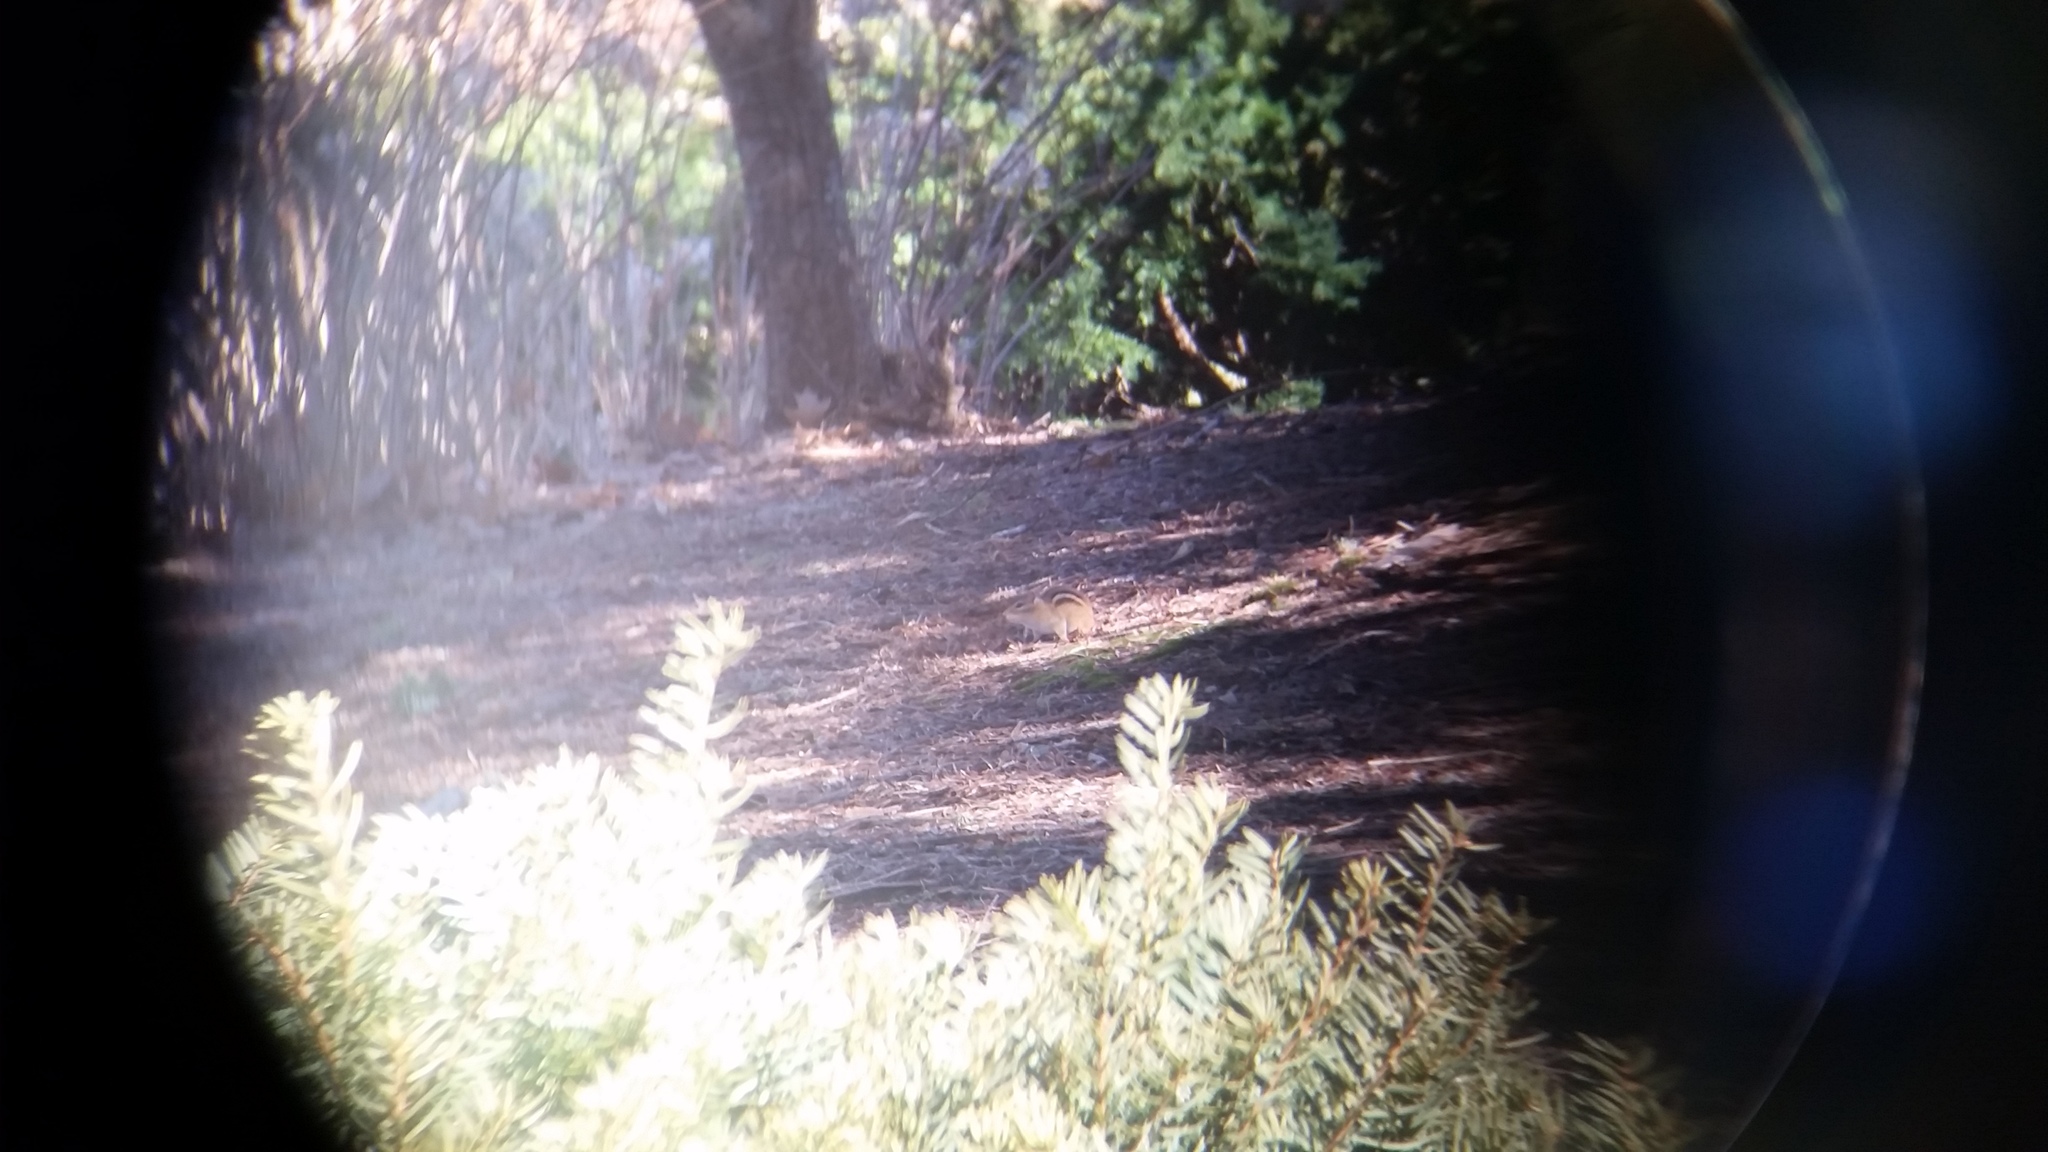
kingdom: Animalia
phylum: Chordata
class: Mammalia
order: Rodentia
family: Sciuridae
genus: Tamias
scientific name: Tamias striatus
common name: Eastern chipmunk
